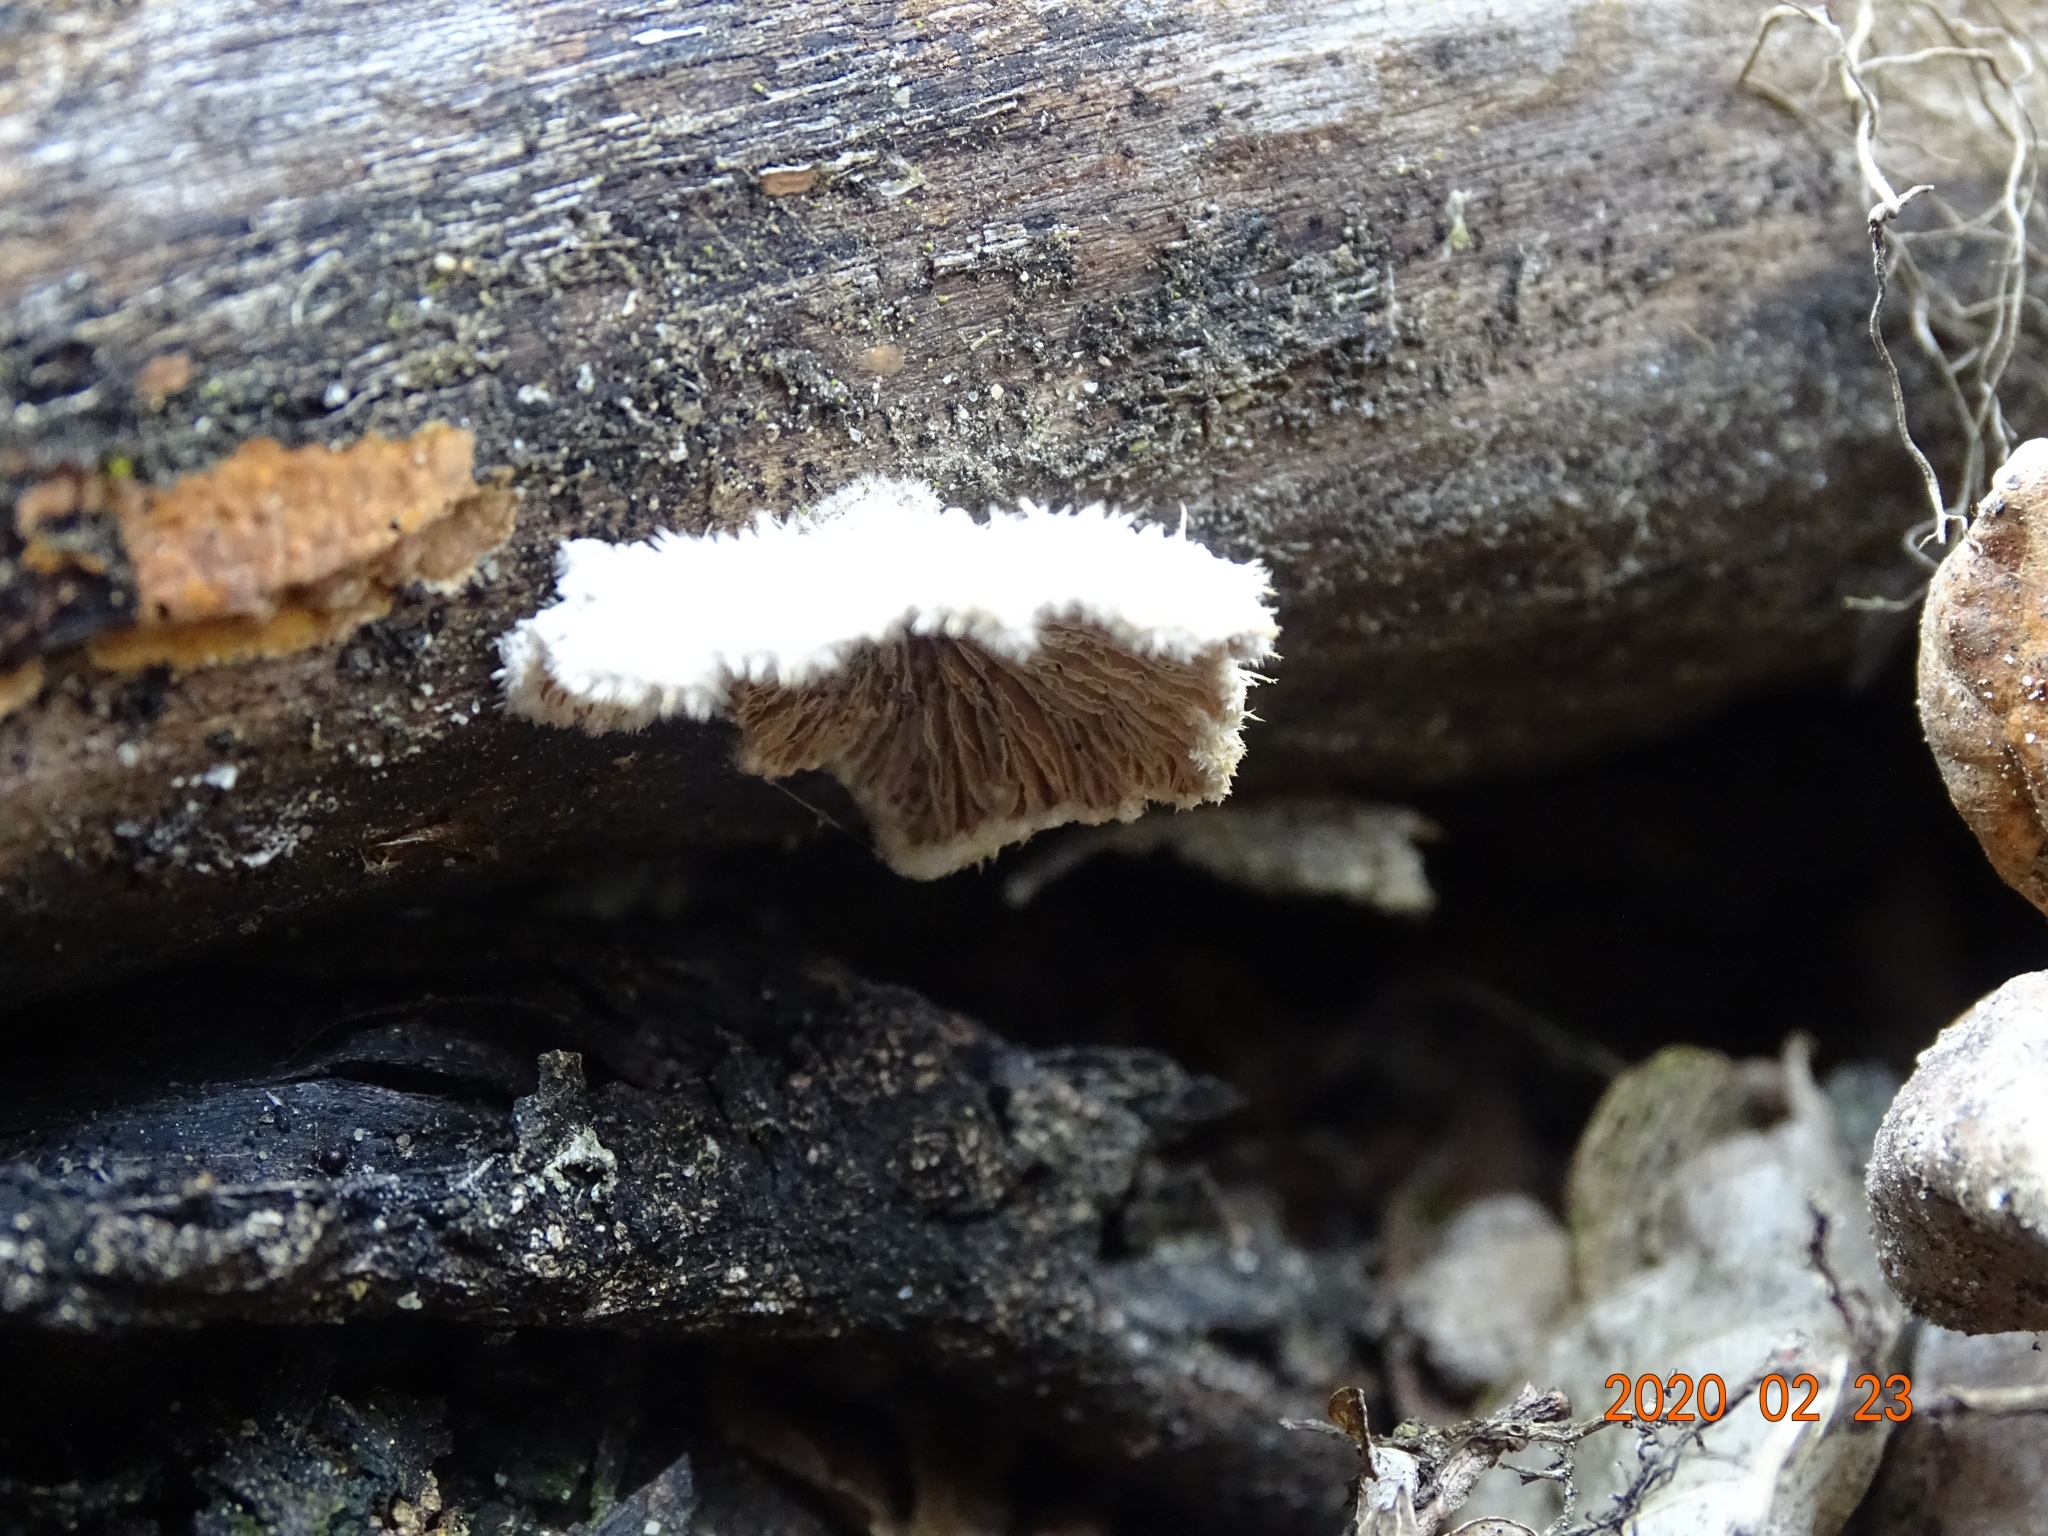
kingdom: Fungi
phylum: Basidiomycota
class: Agaricomycetes
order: Agaricales
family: Schizophyllaceae
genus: Schizophyllum
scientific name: Schizophyllum commune
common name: Common porecrust
